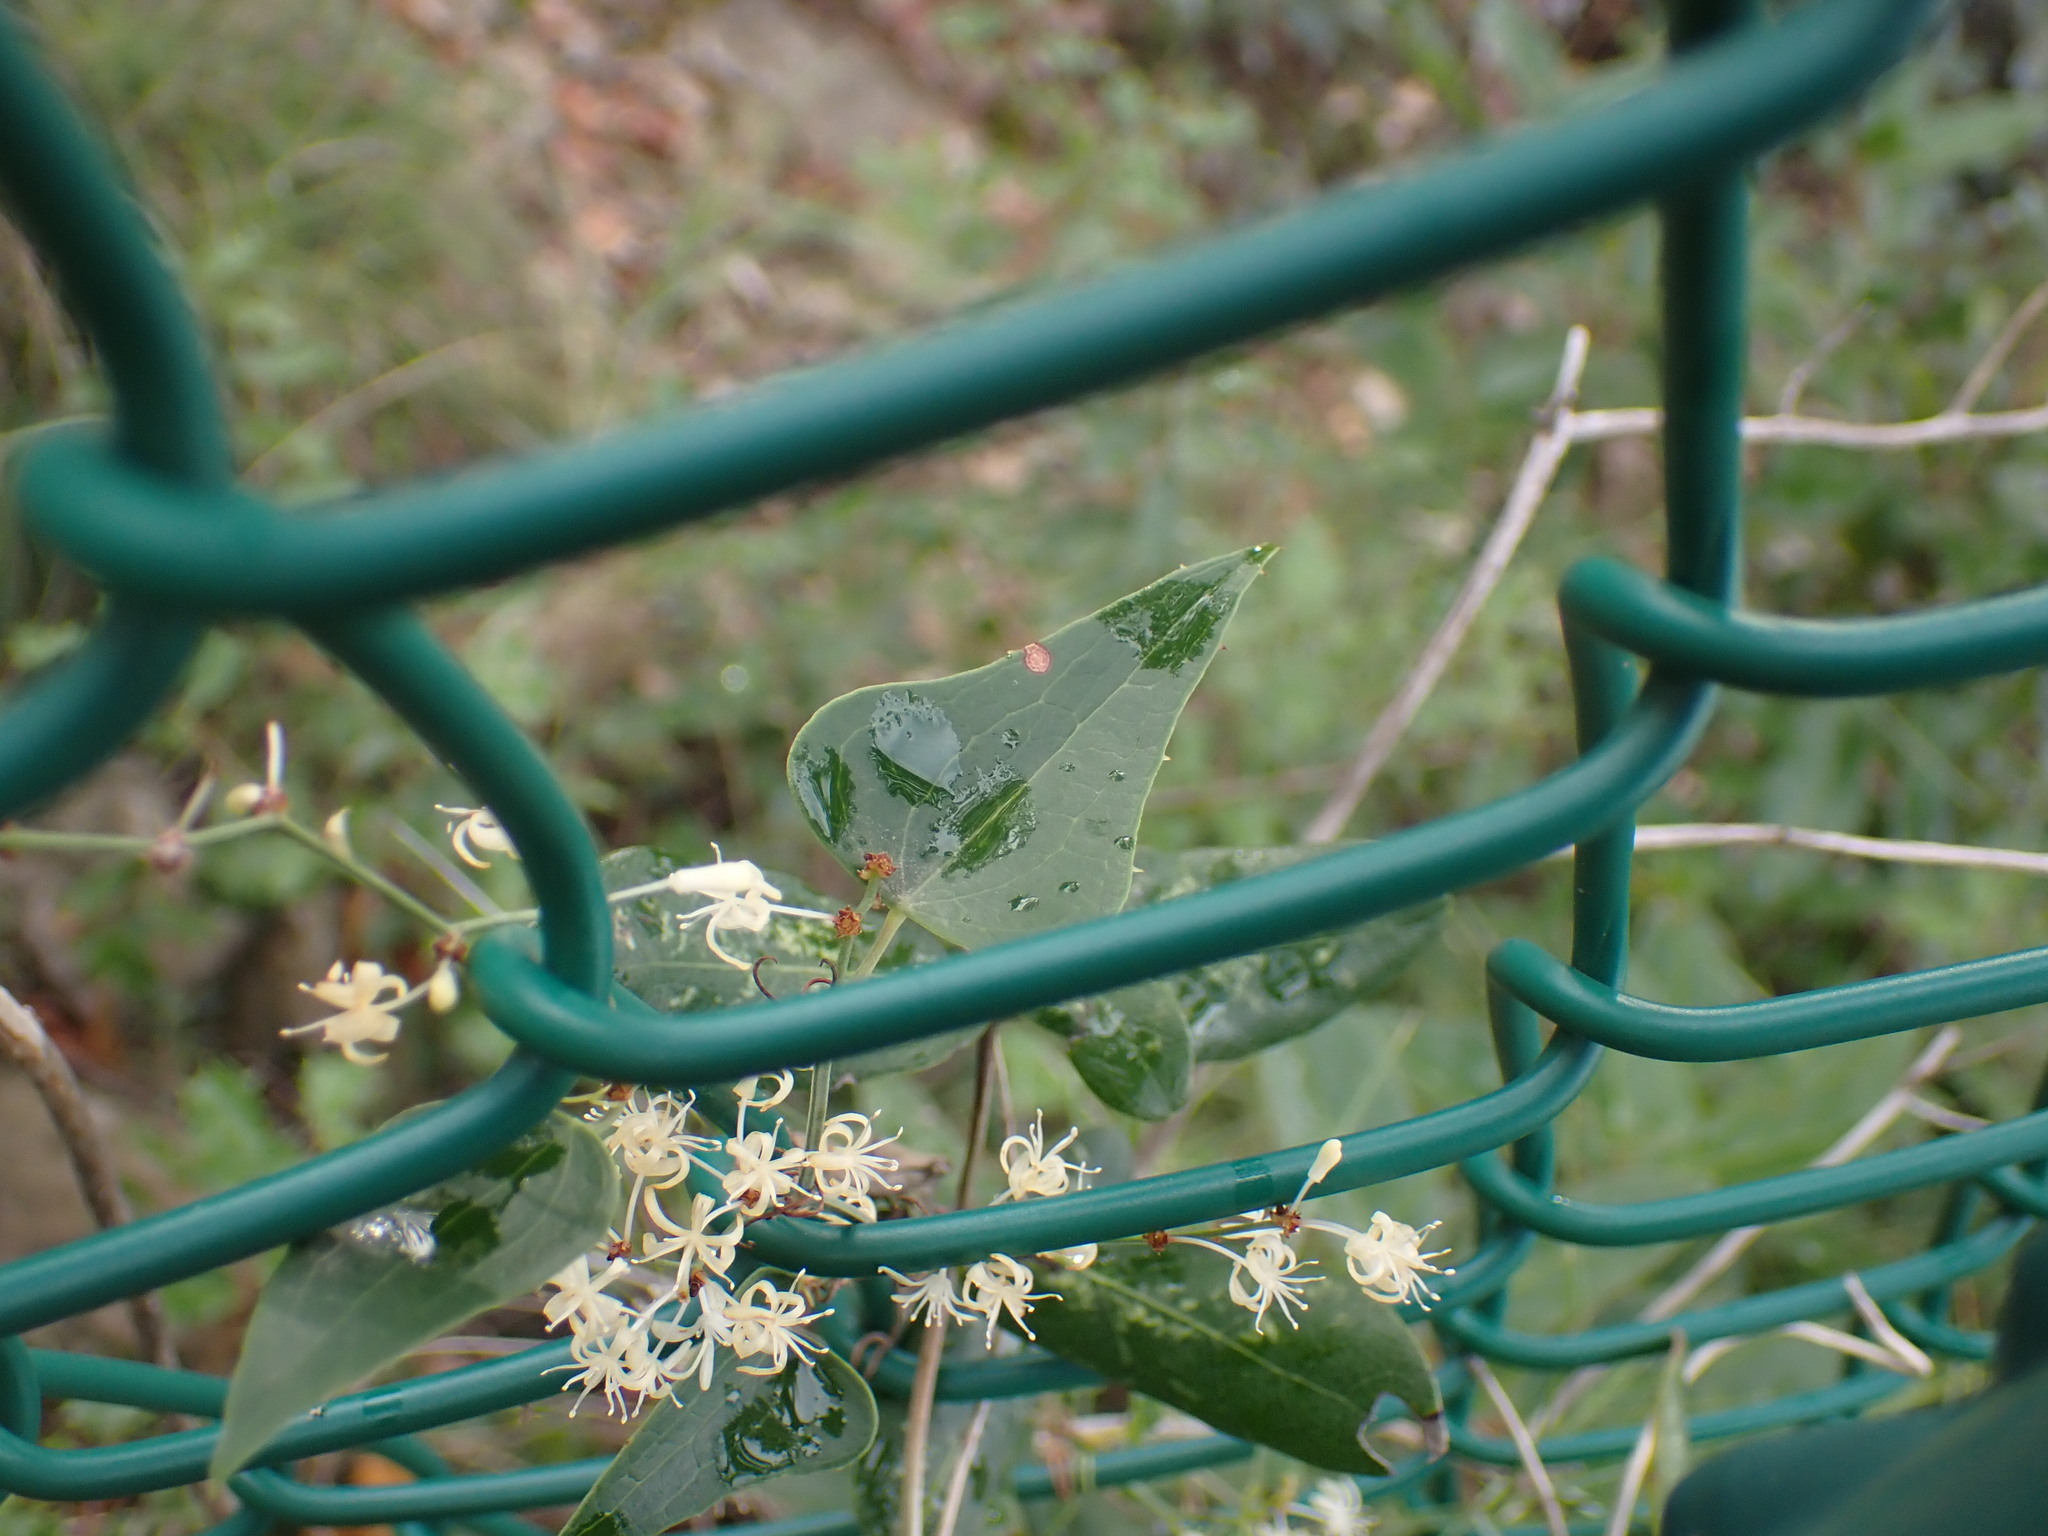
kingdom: Plantae
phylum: Tracheophyta
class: Liliopsida
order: Liliales
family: Smilacaceae
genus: Smilax
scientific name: Smilax aspera
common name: Common smilax
